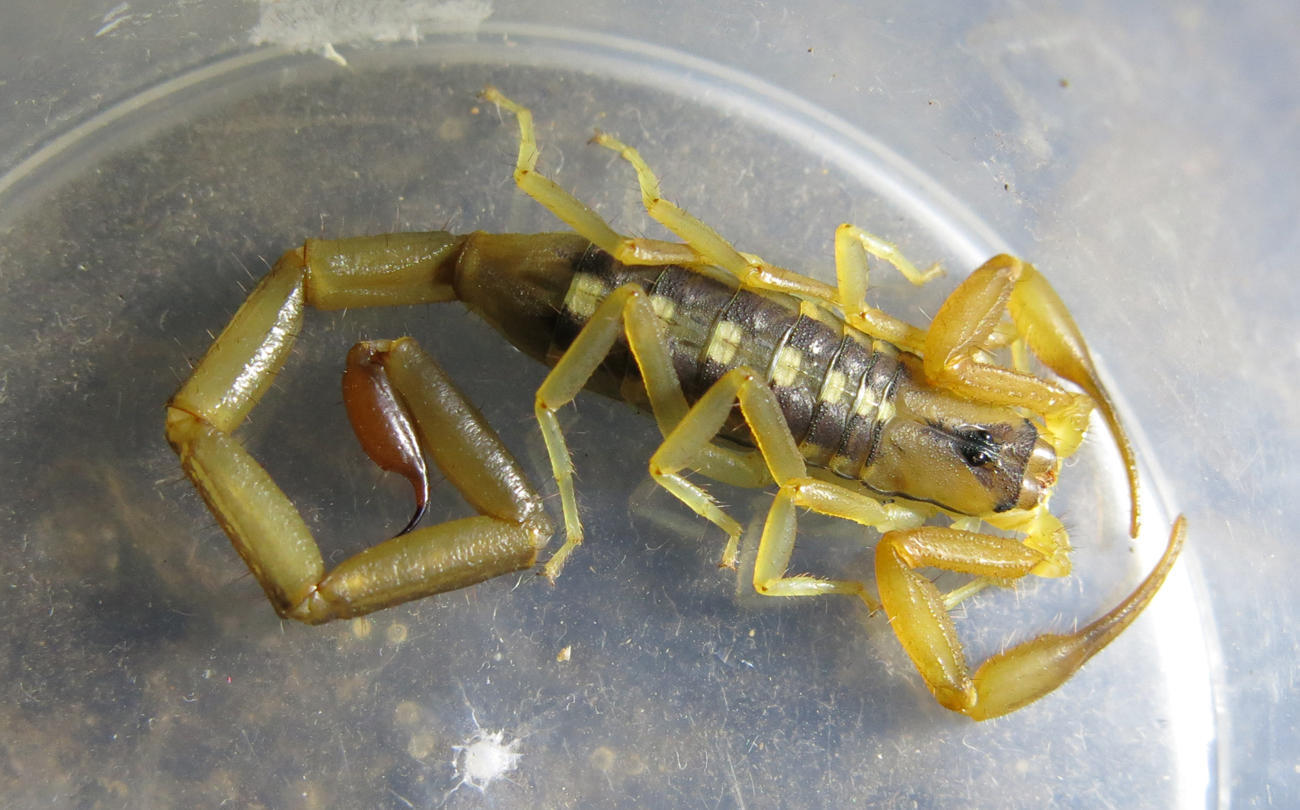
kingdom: Animalia
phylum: Arthropoda
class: Arachnida
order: Scorpiones
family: Buthidae
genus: Uroplectes
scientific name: Uroplectes vittatus
